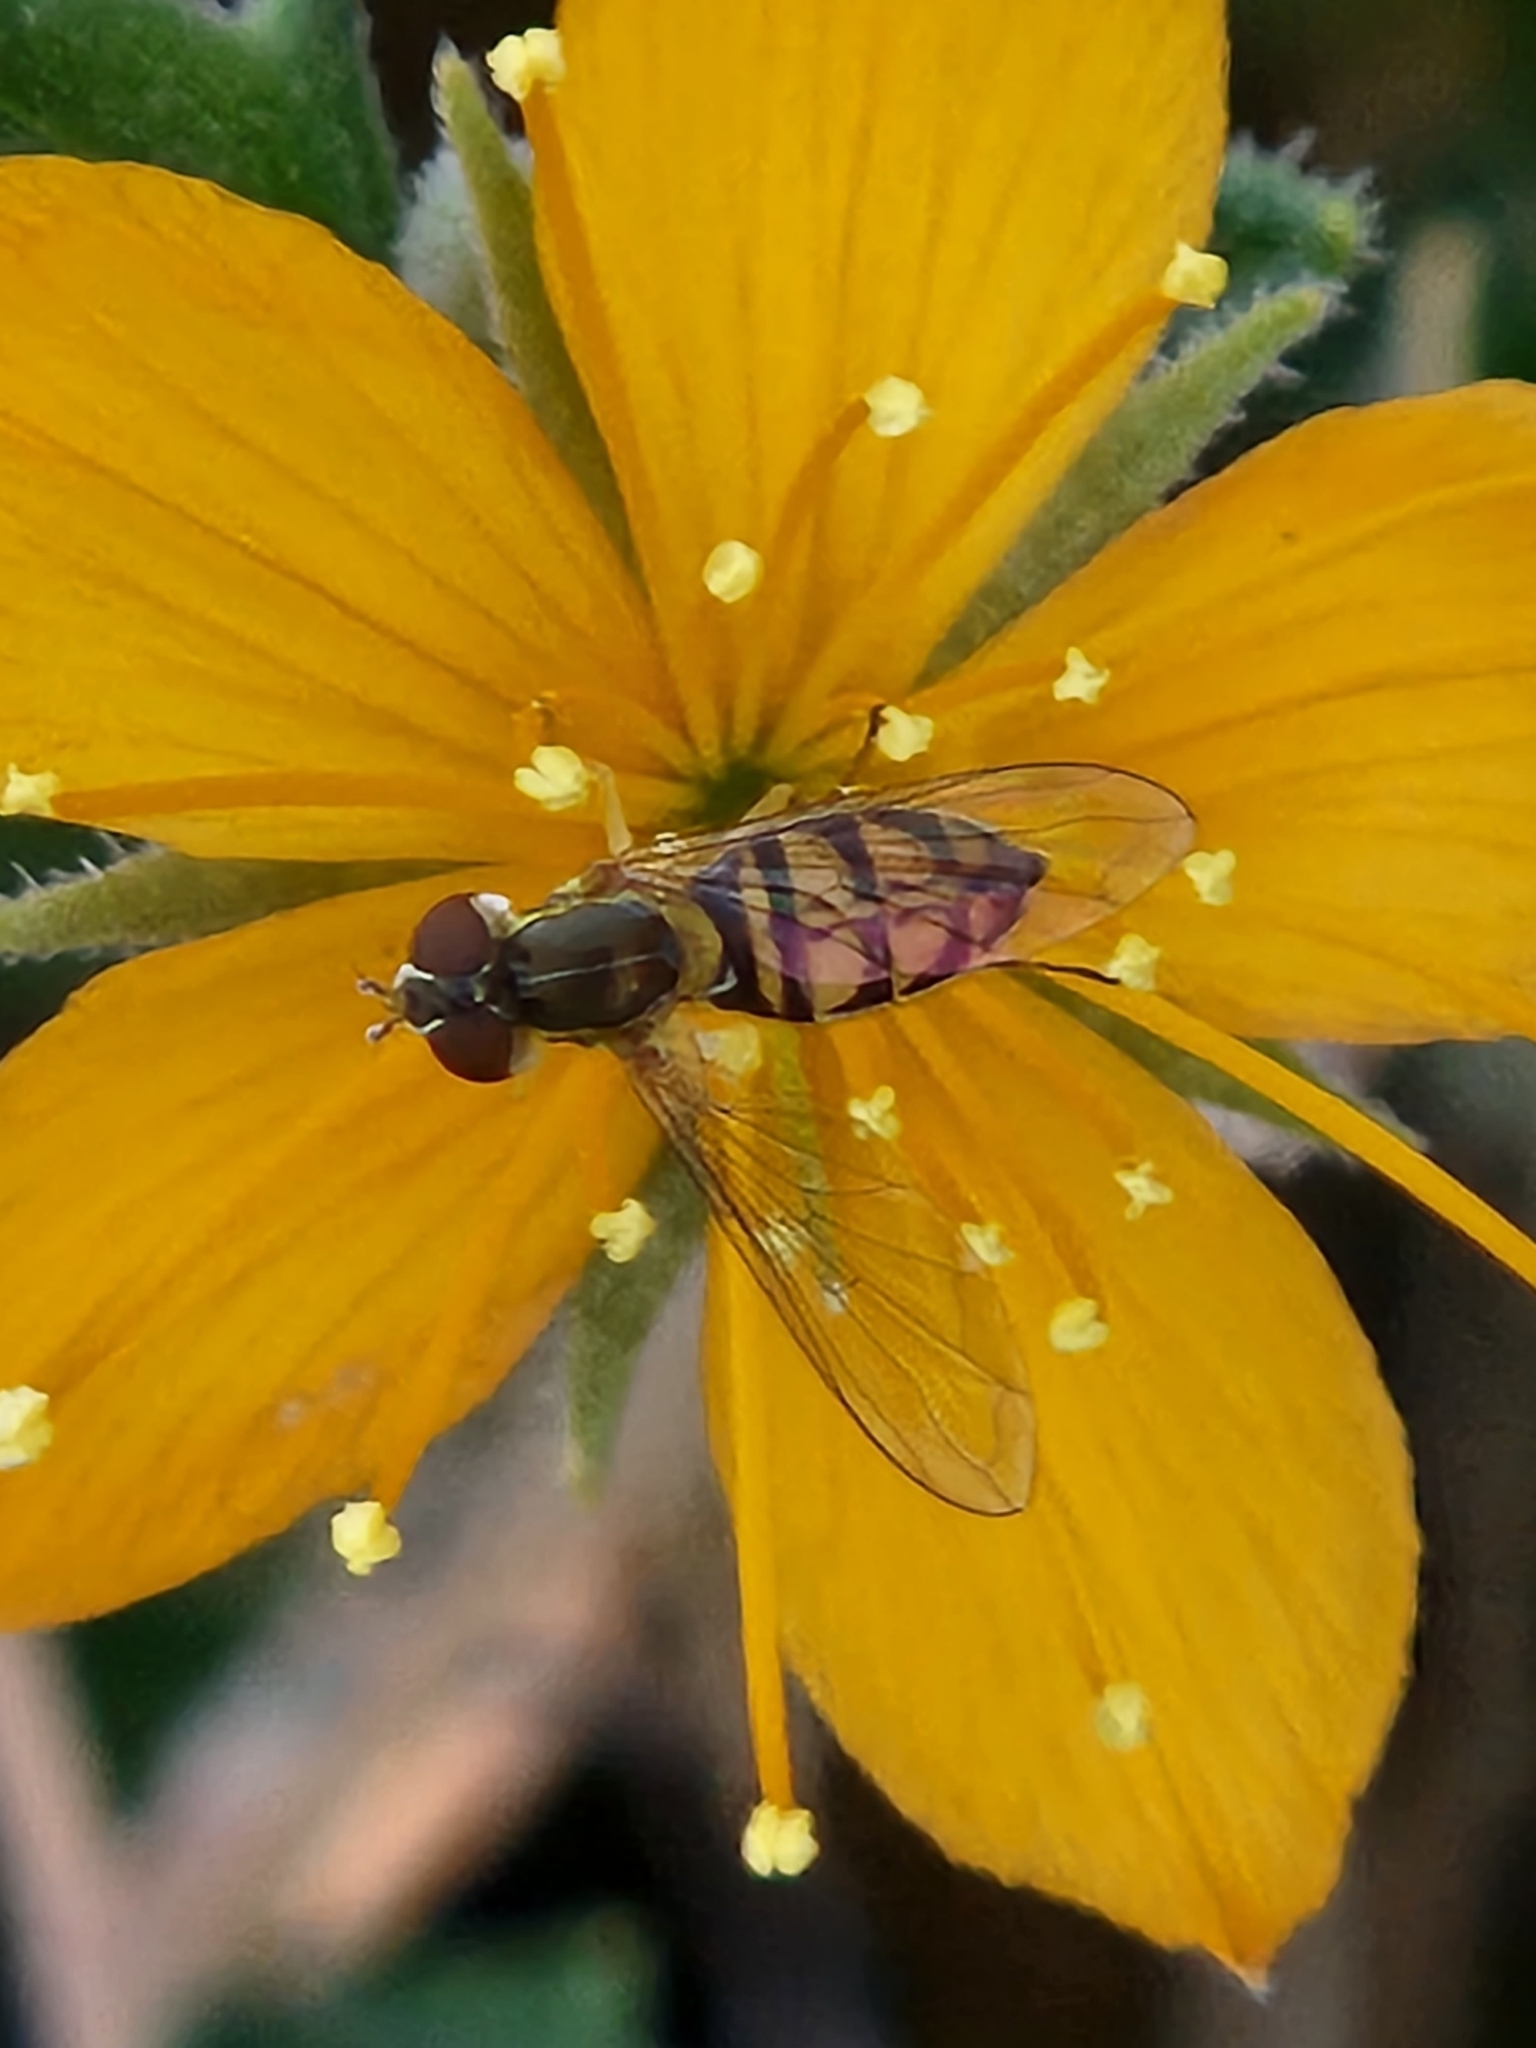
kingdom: Animalia
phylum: Arthropoda
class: Insecta
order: Diptera
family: Syrphidae
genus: Toxomerus
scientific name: Toxomerus marginatus
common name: Syrphid fly
